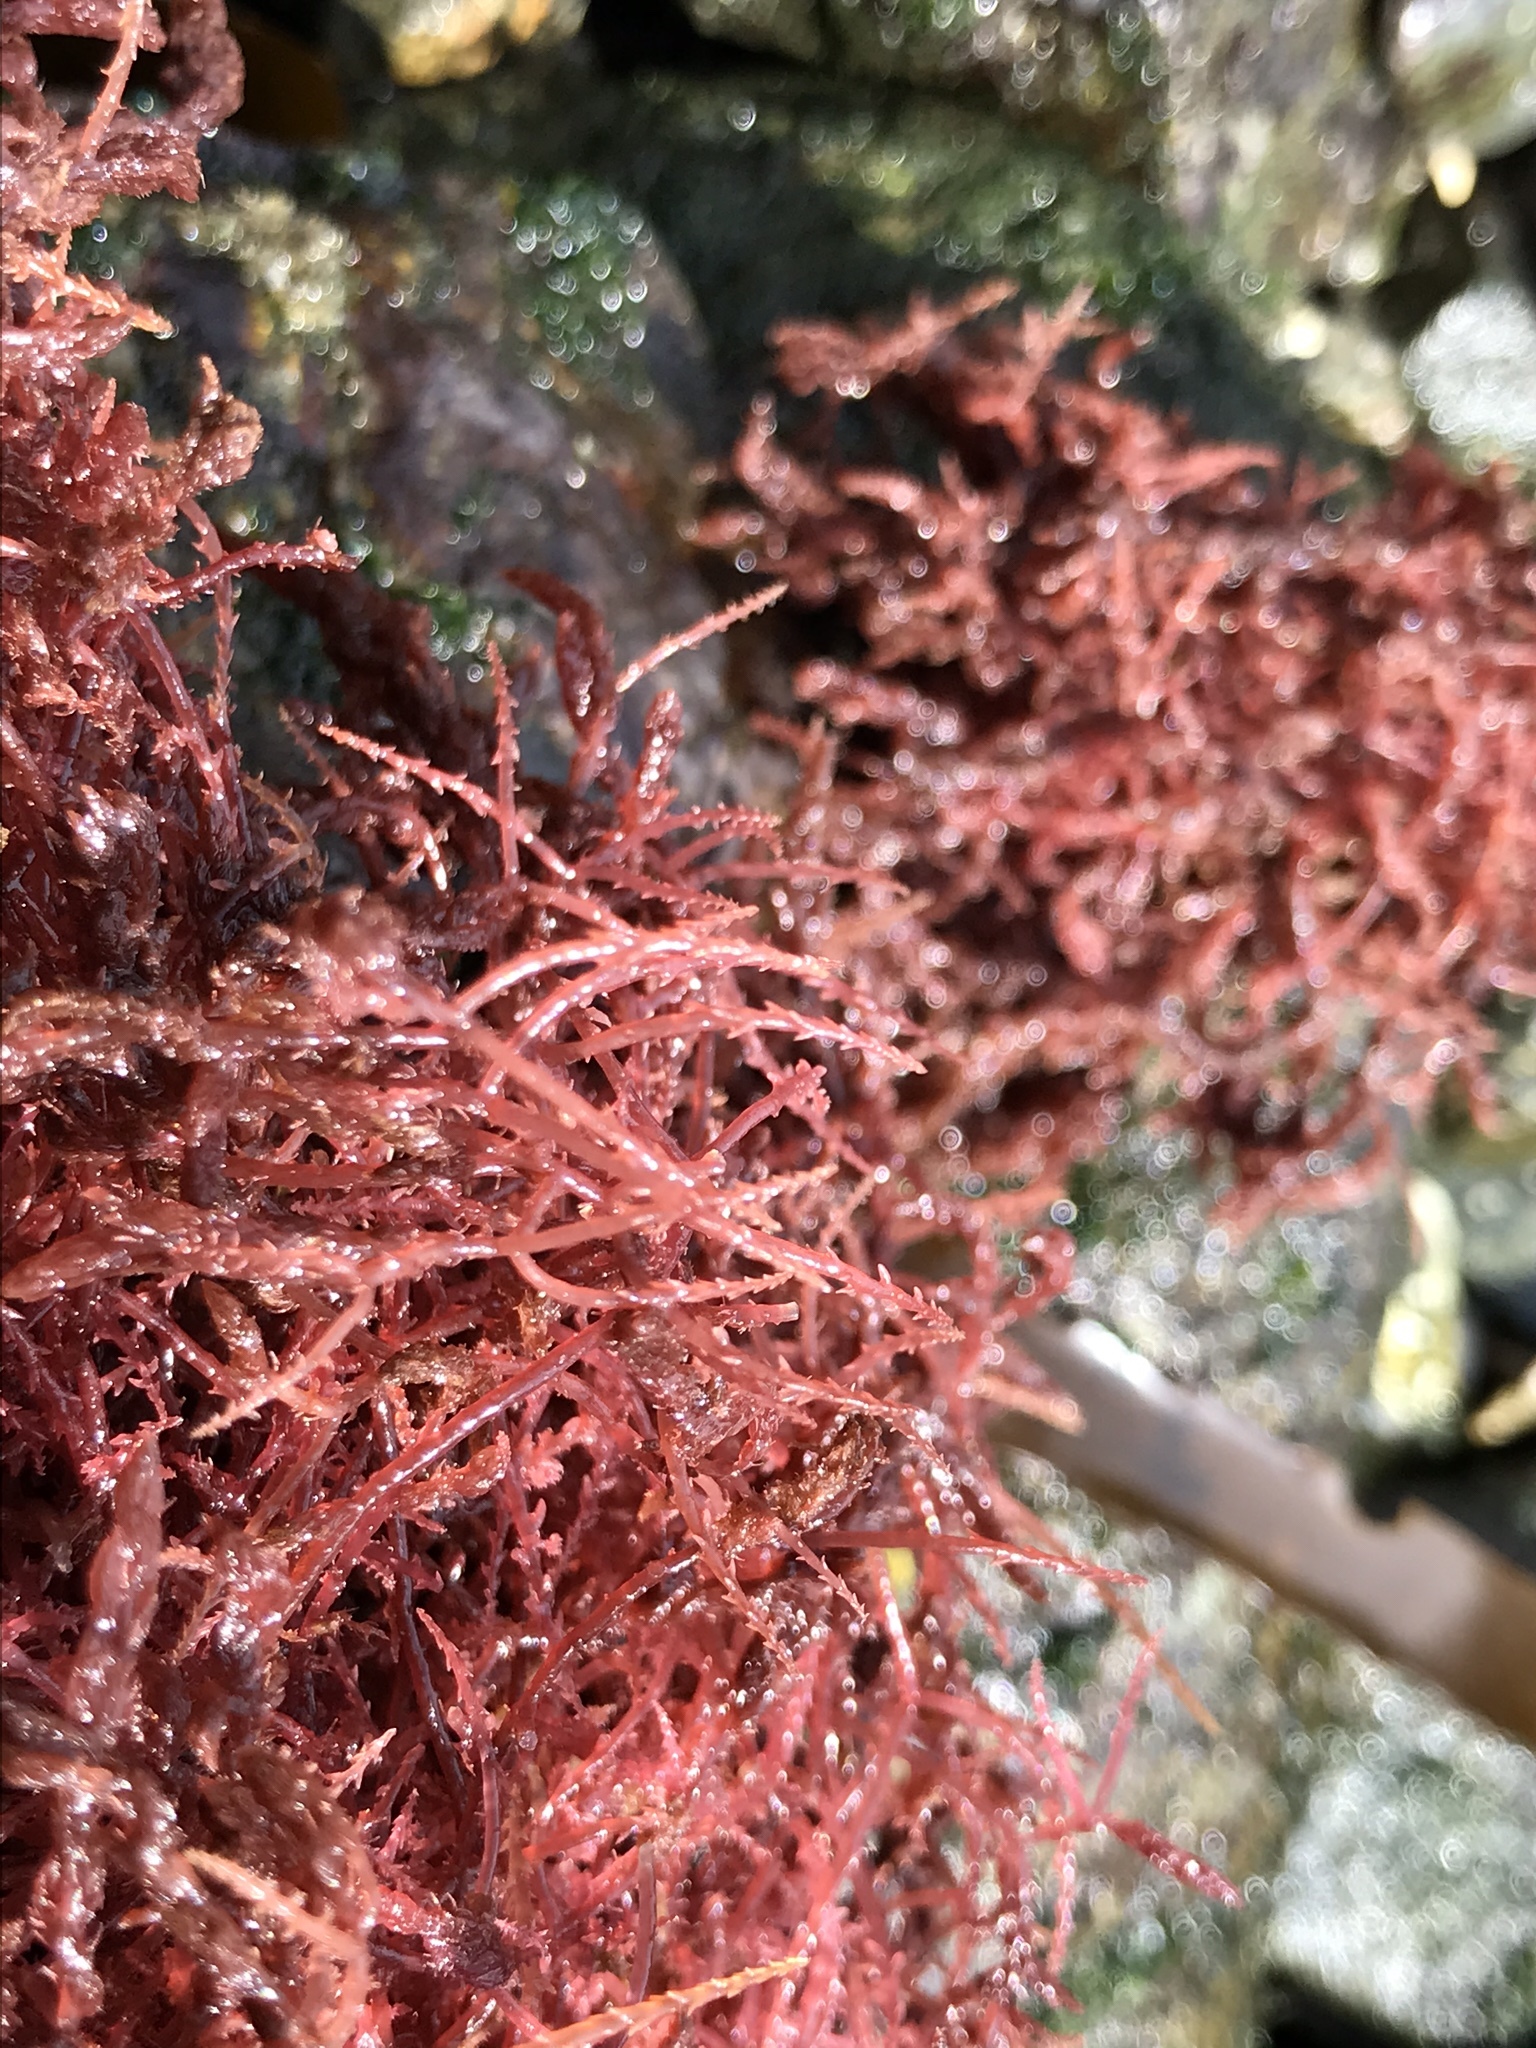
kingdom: Plantae
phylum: Rhodophyta
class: Florideophyceae
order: Bonnemaisoniales
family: Bonnemaisoniaceae
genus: Asparagopsis
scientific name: Asparagopsis armata
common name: Harpoon weed
